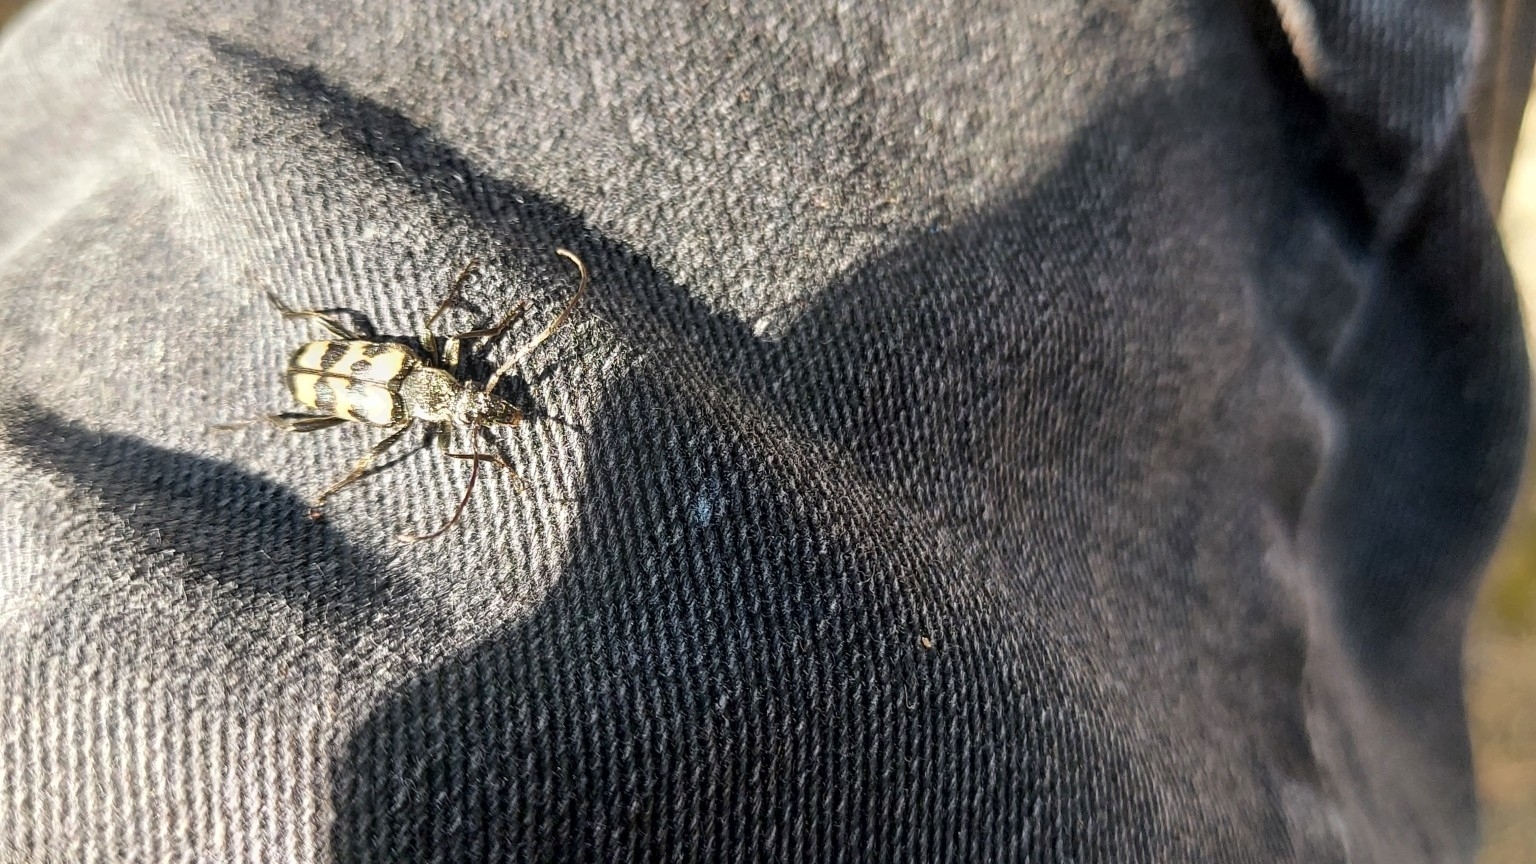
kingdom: Animalia
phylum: Arthropoda
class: Insecta
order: Coleoptera
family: Cerambycidae
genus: Judolia
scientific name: Judolia sexmaculata
